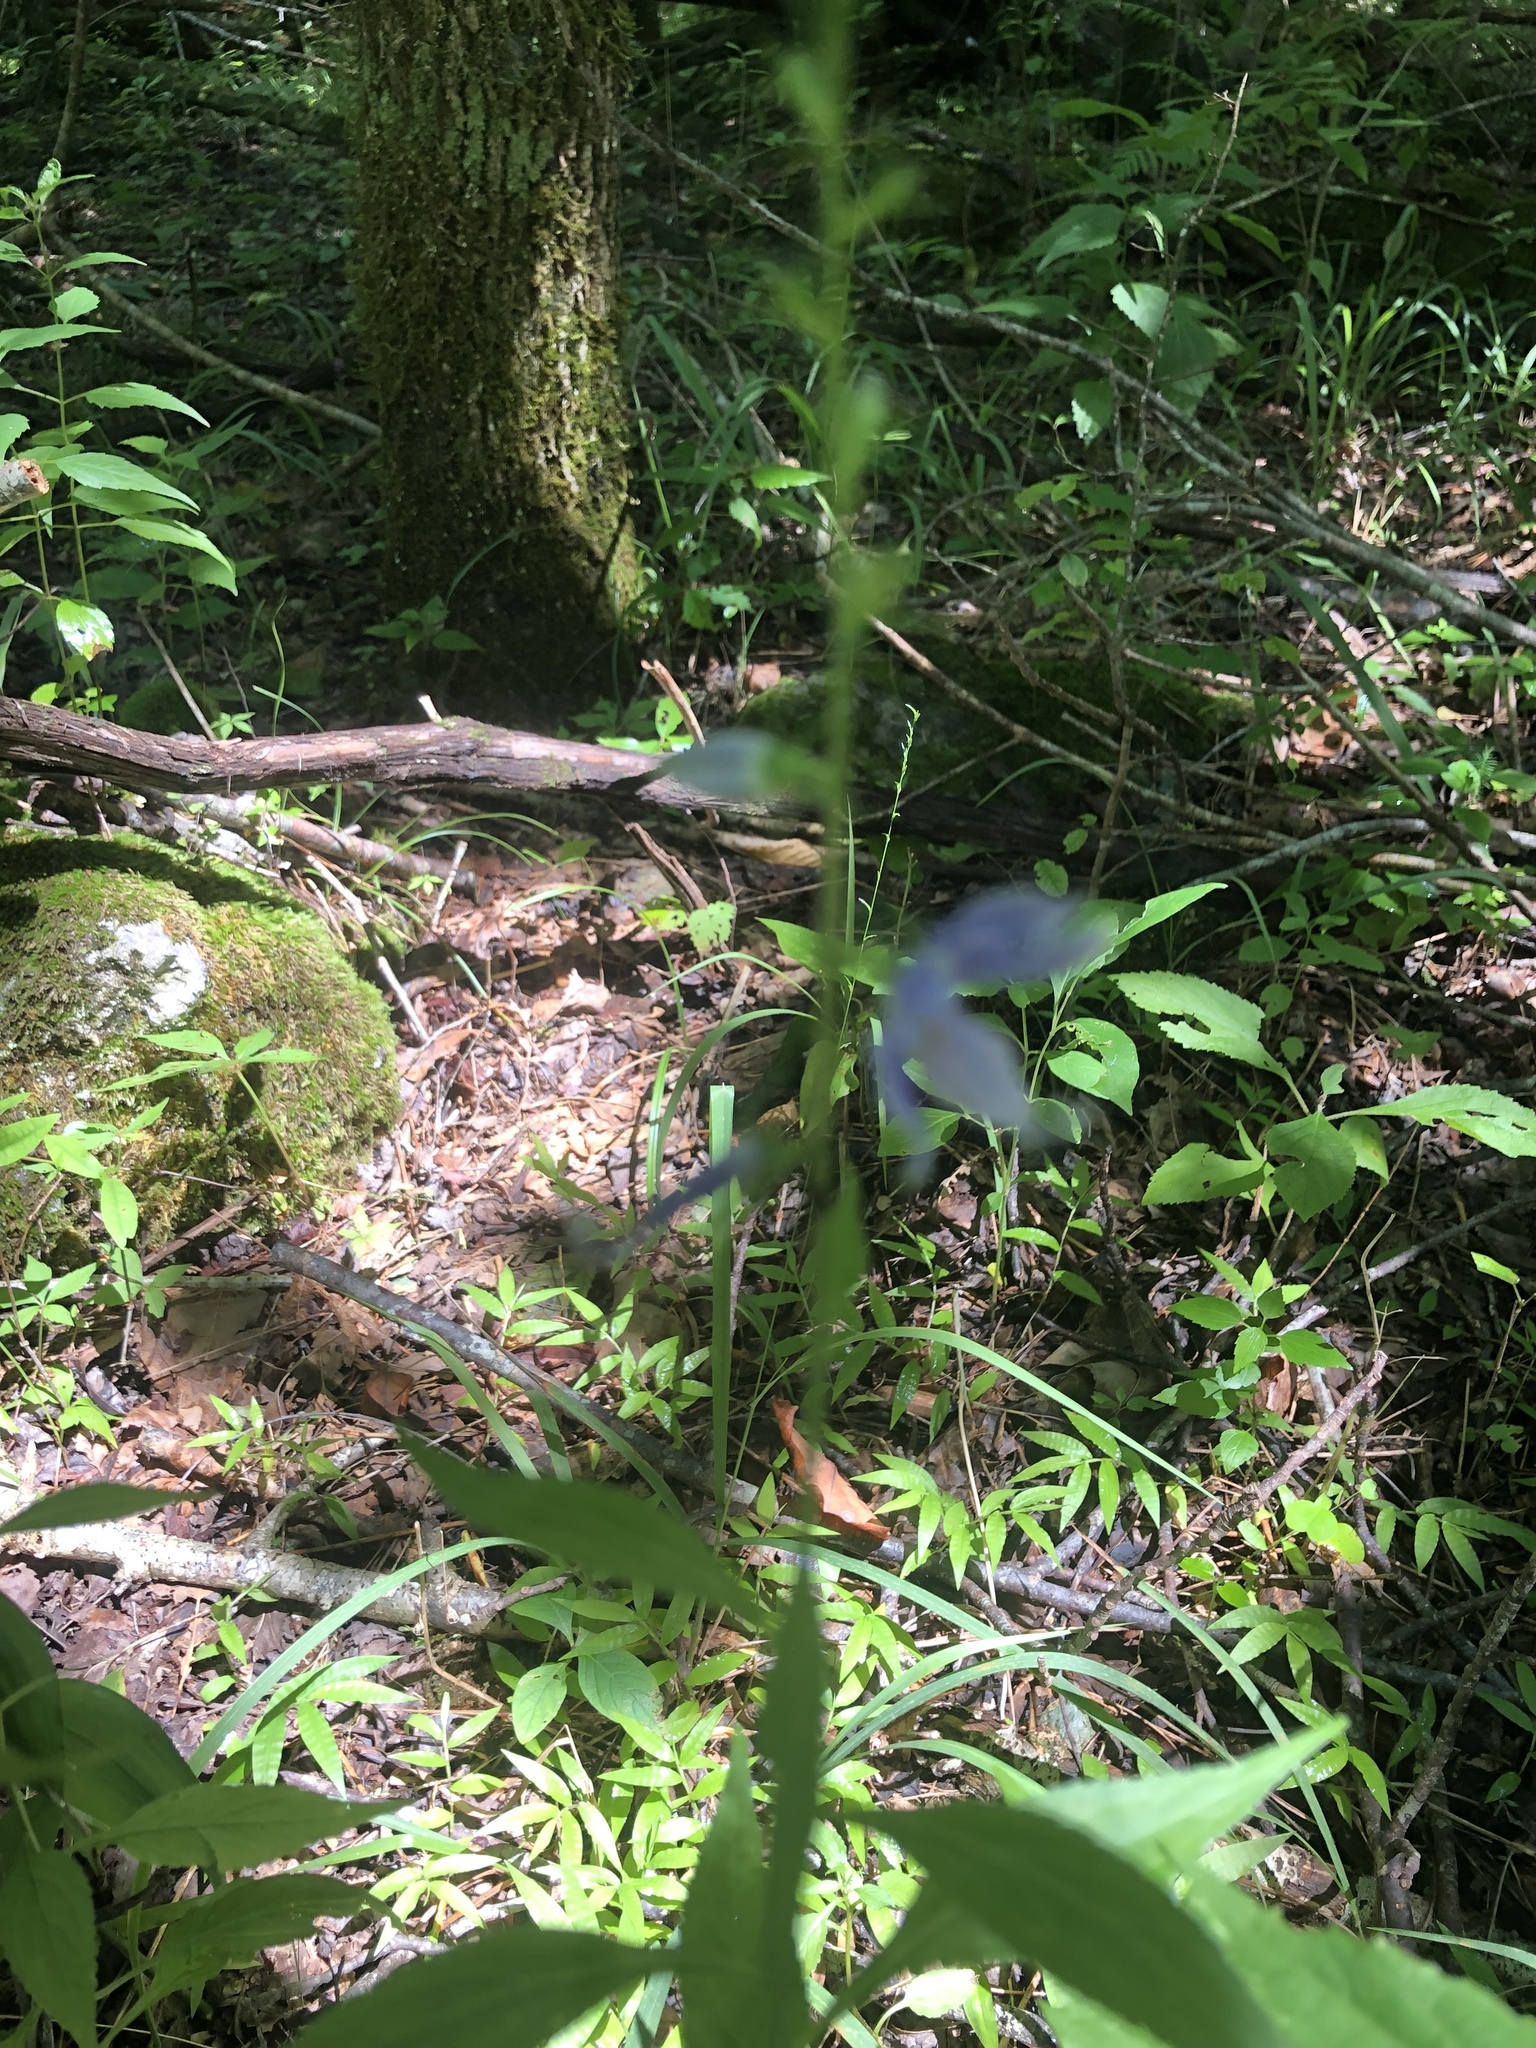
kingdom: Plantae
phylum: Tracheophyta
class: Magnoliopsida
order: Asterales
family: Campanulaceae
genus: Campanulastrum
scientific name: Campanulastrum americanum
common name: American bellflower
